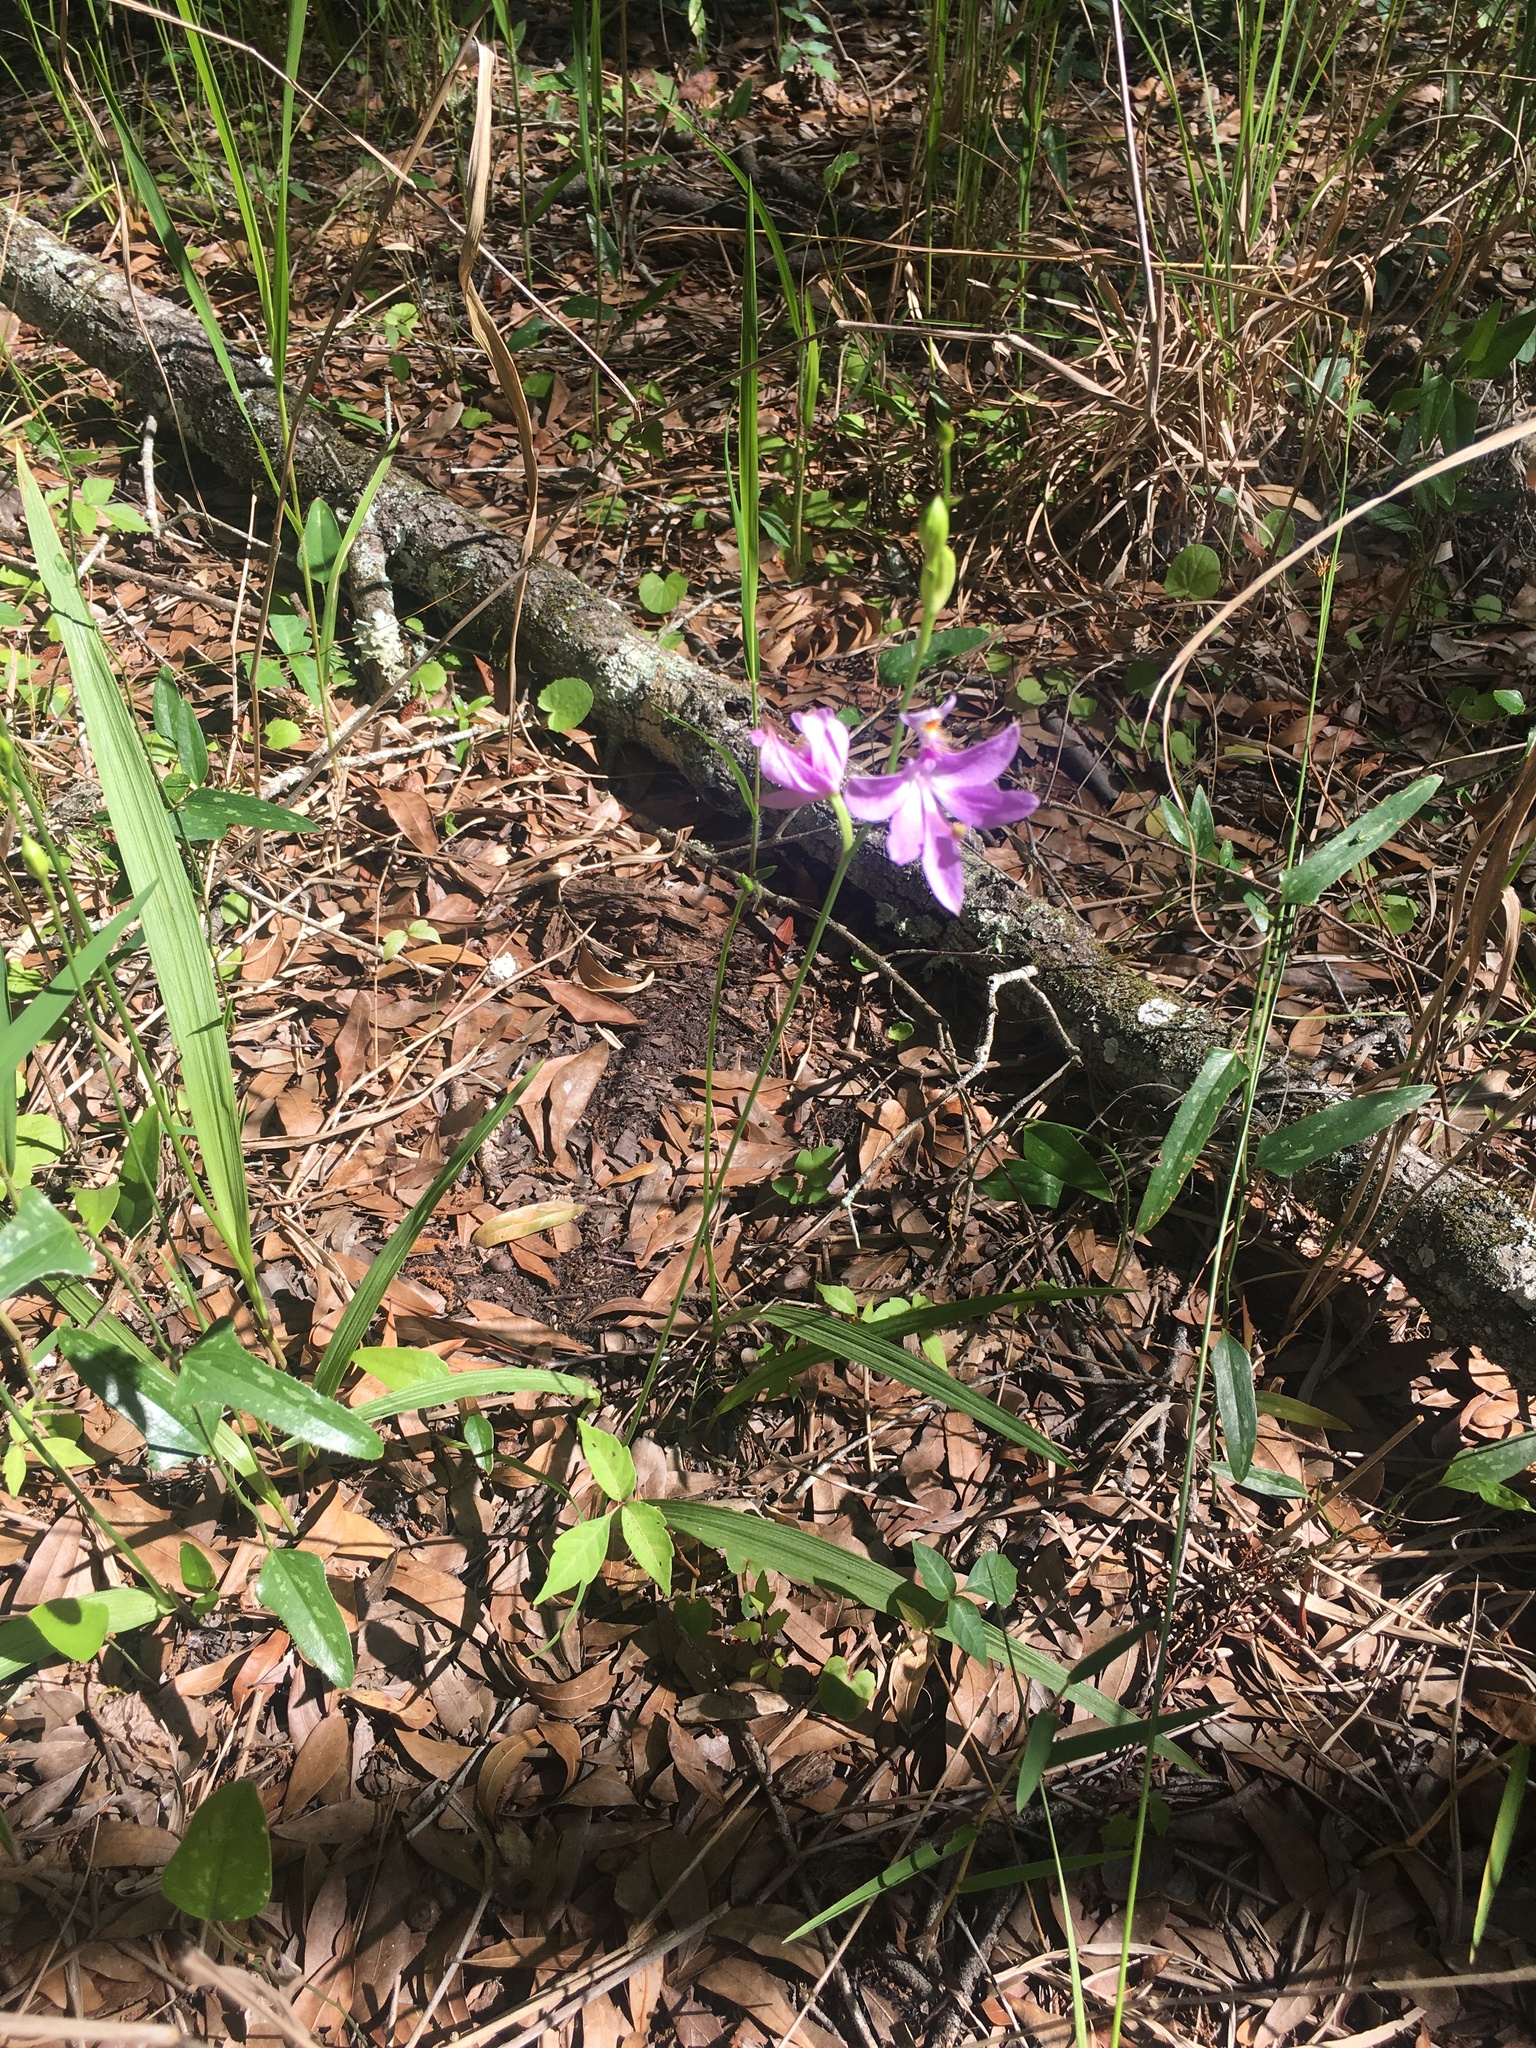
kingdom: Plantae
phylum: Tracheophyta
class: Liliopsida
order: Asparagales
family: Orchidaceae
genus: Calopogon
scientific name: Calopogon tuberosus
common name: Grass-pink
